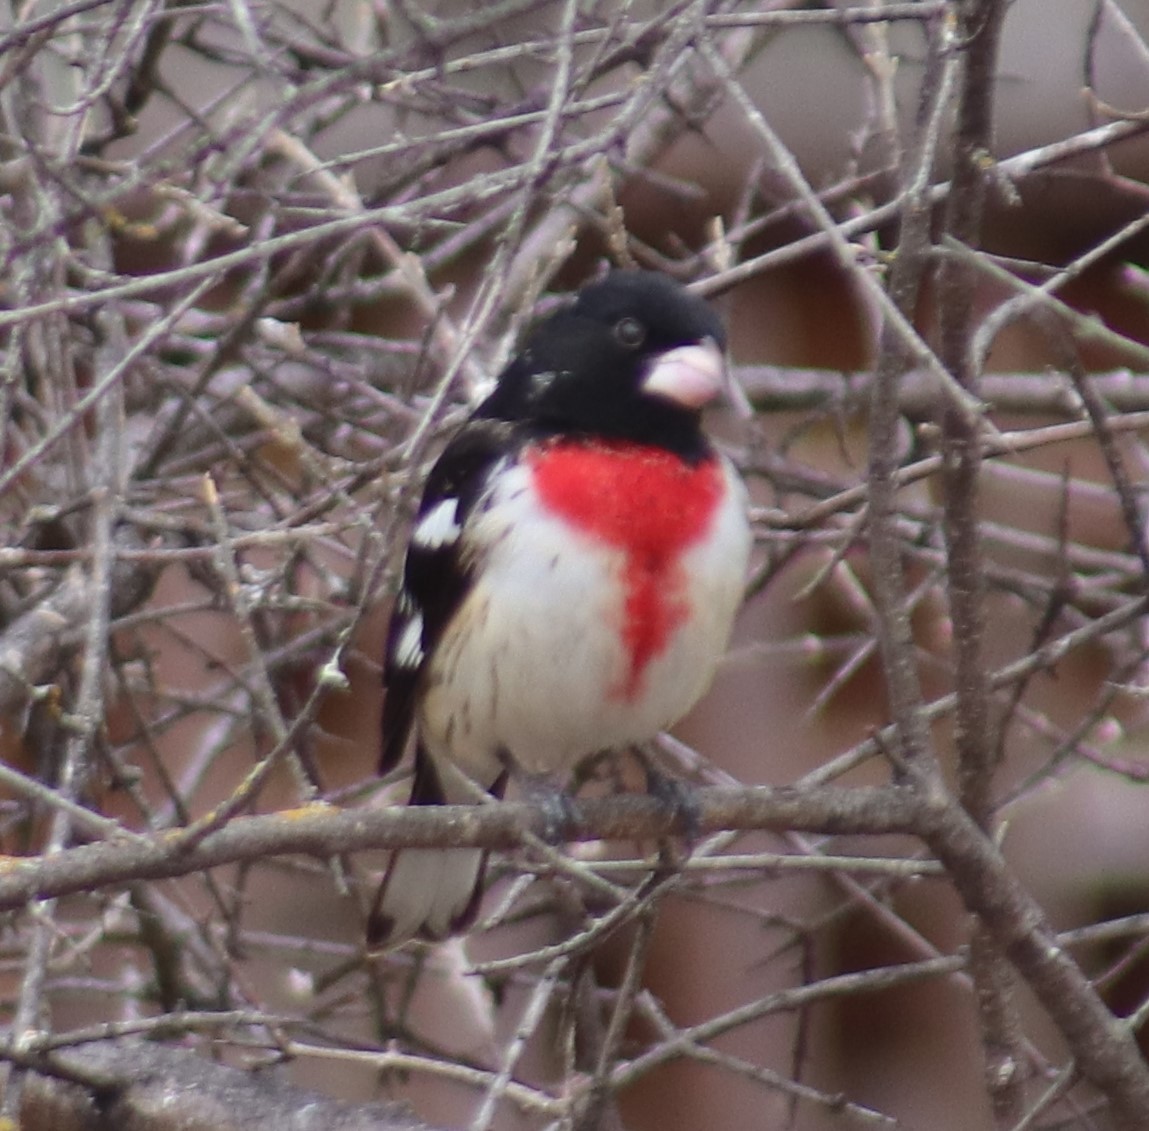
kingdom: Animalia
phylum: Chordata
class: Aves
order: Passeriformes
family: Cardinalidae
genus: Pheucticus
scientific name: Pheucticus ludovicianus
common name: Rose-breasted grosbeak
